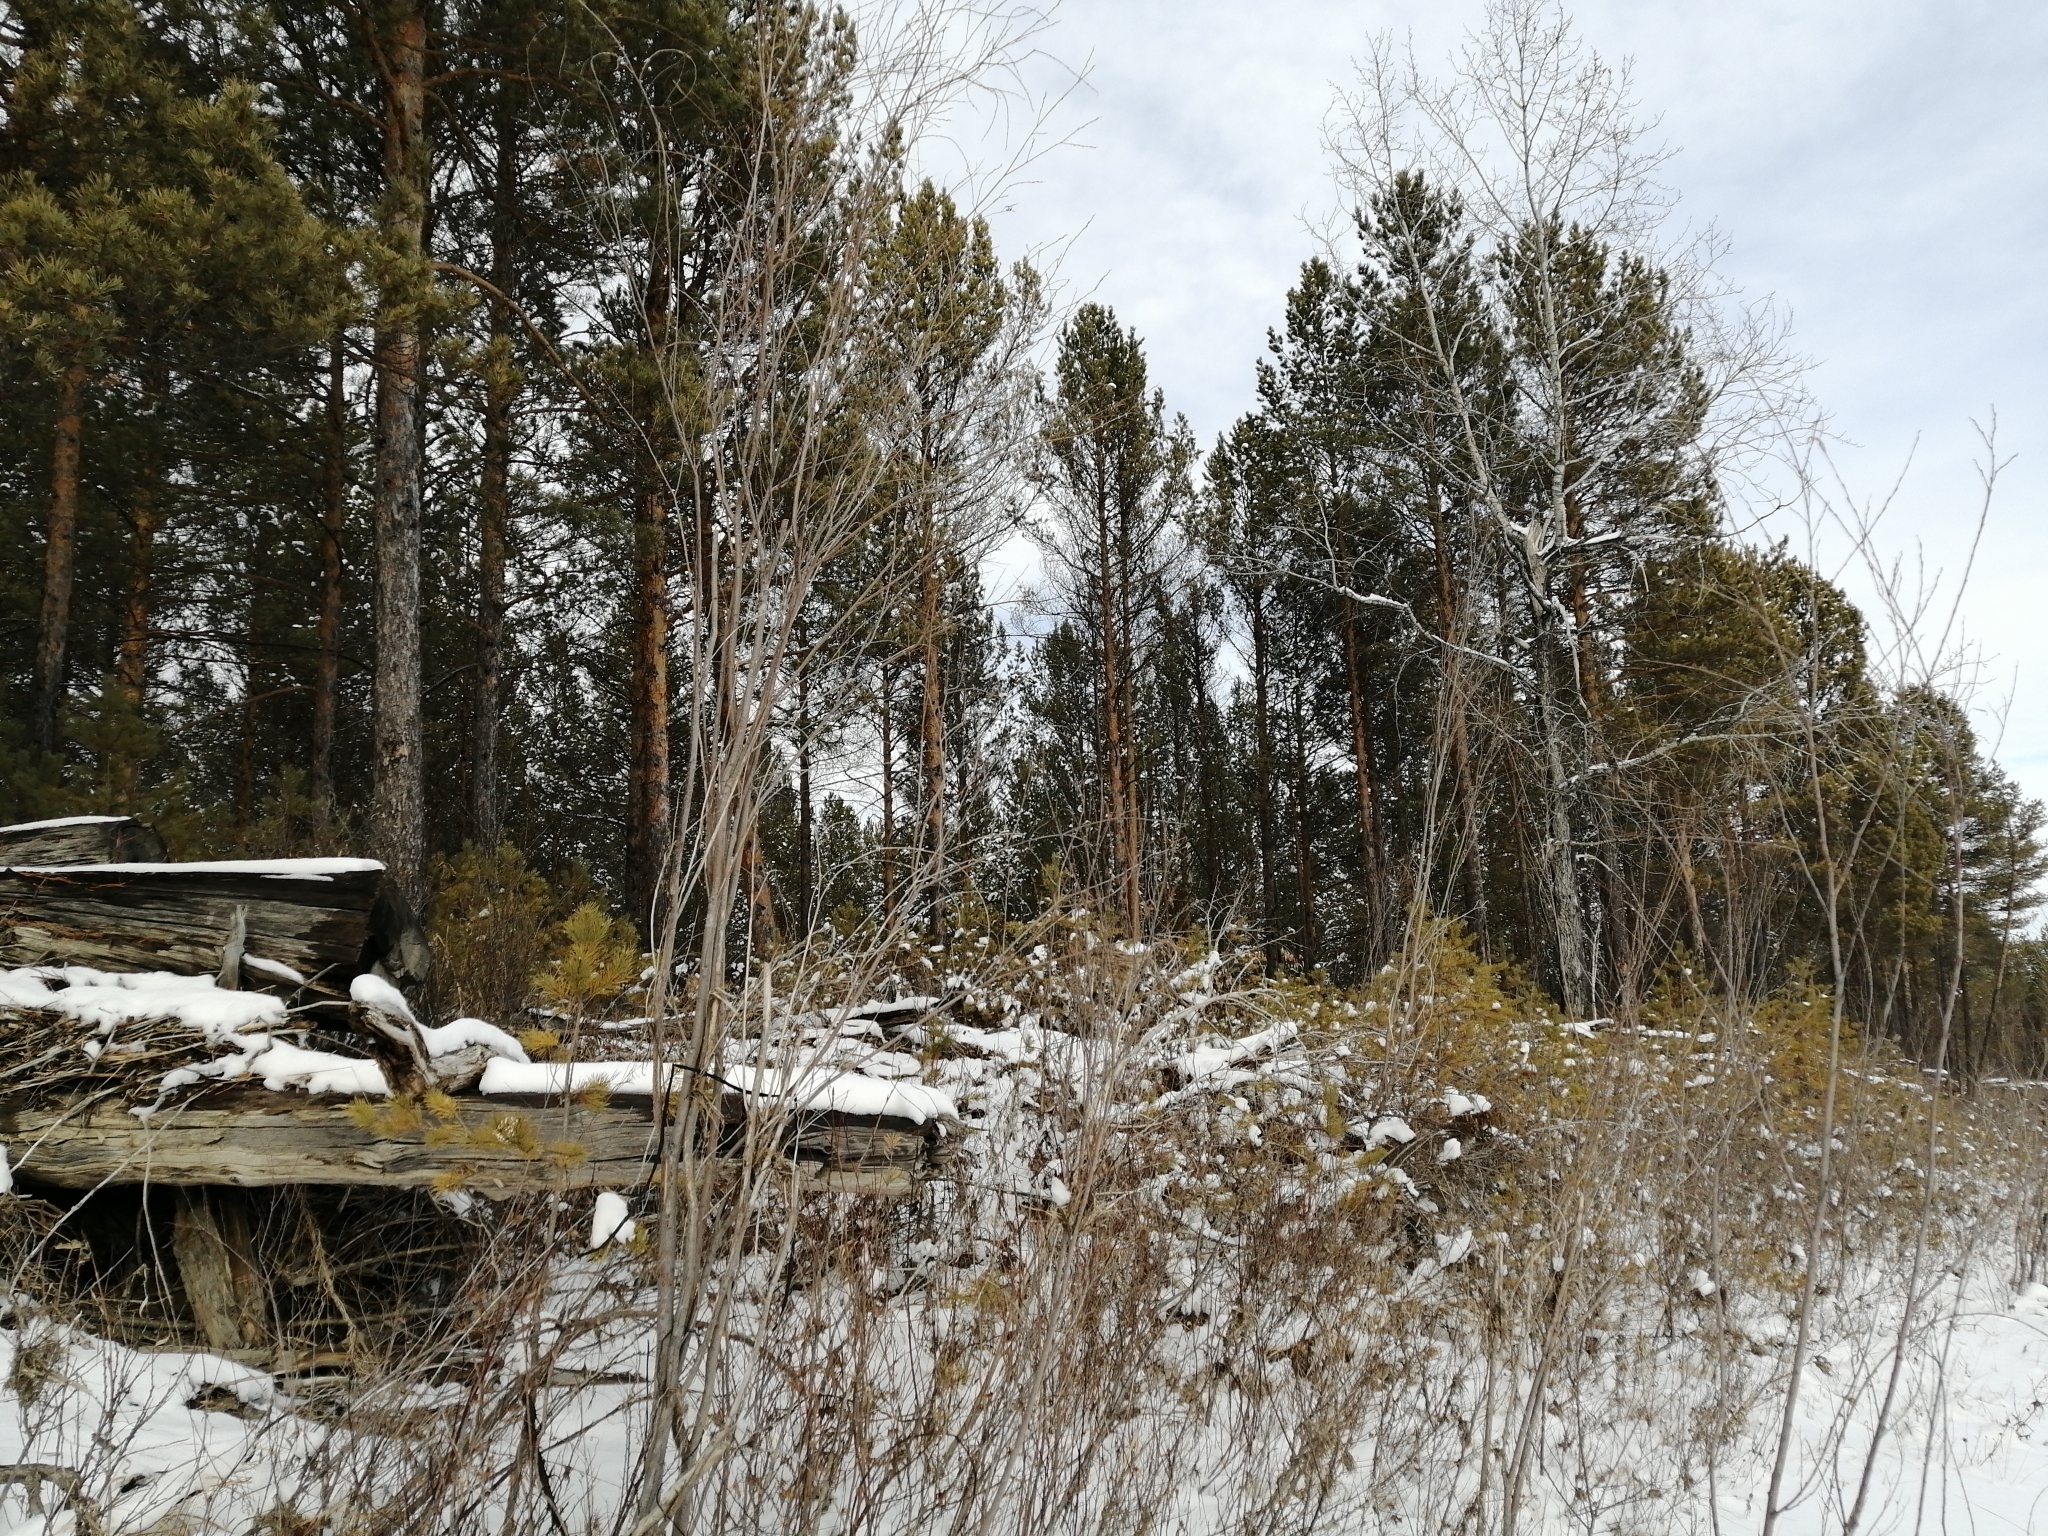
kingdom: Plantae
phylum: Tracheophyta
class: Pinopsida
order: Pinales
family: Pinaceae
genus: Pinus
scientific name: Pinus sylvestris
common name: Scots pine
